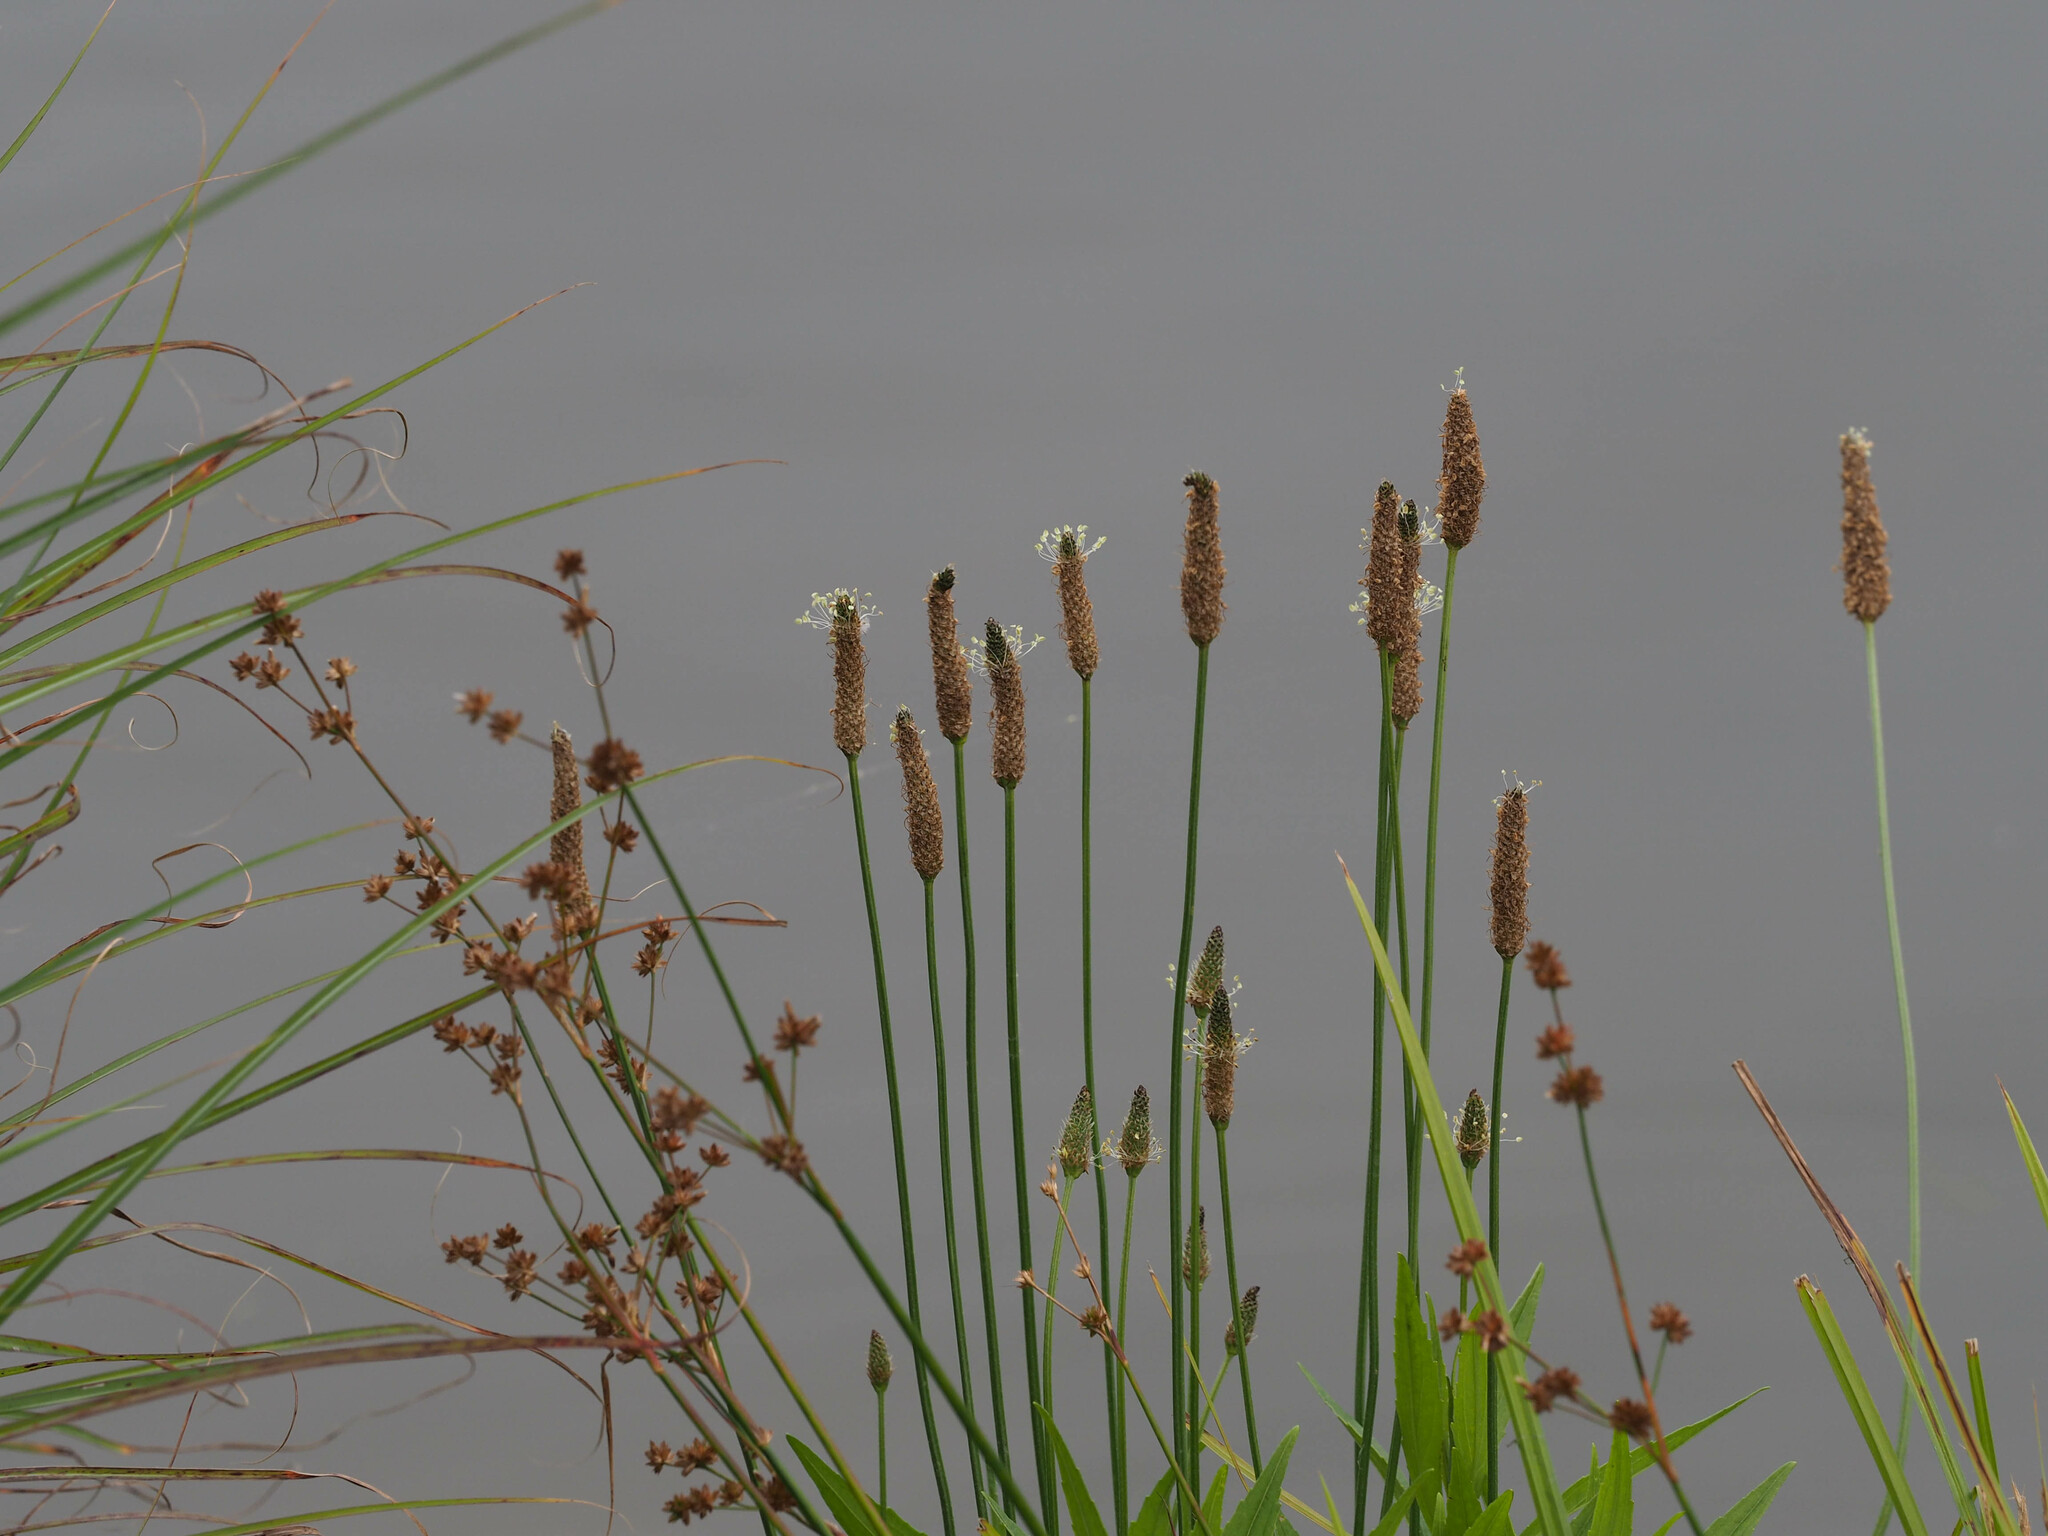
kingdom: Plantae
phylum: Tracheophyta
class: Magnoliopsida
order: Lamiales
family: Plantaginaceae
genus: Plantago
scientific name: Plantago lanceolata
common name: Ribwort plantain
